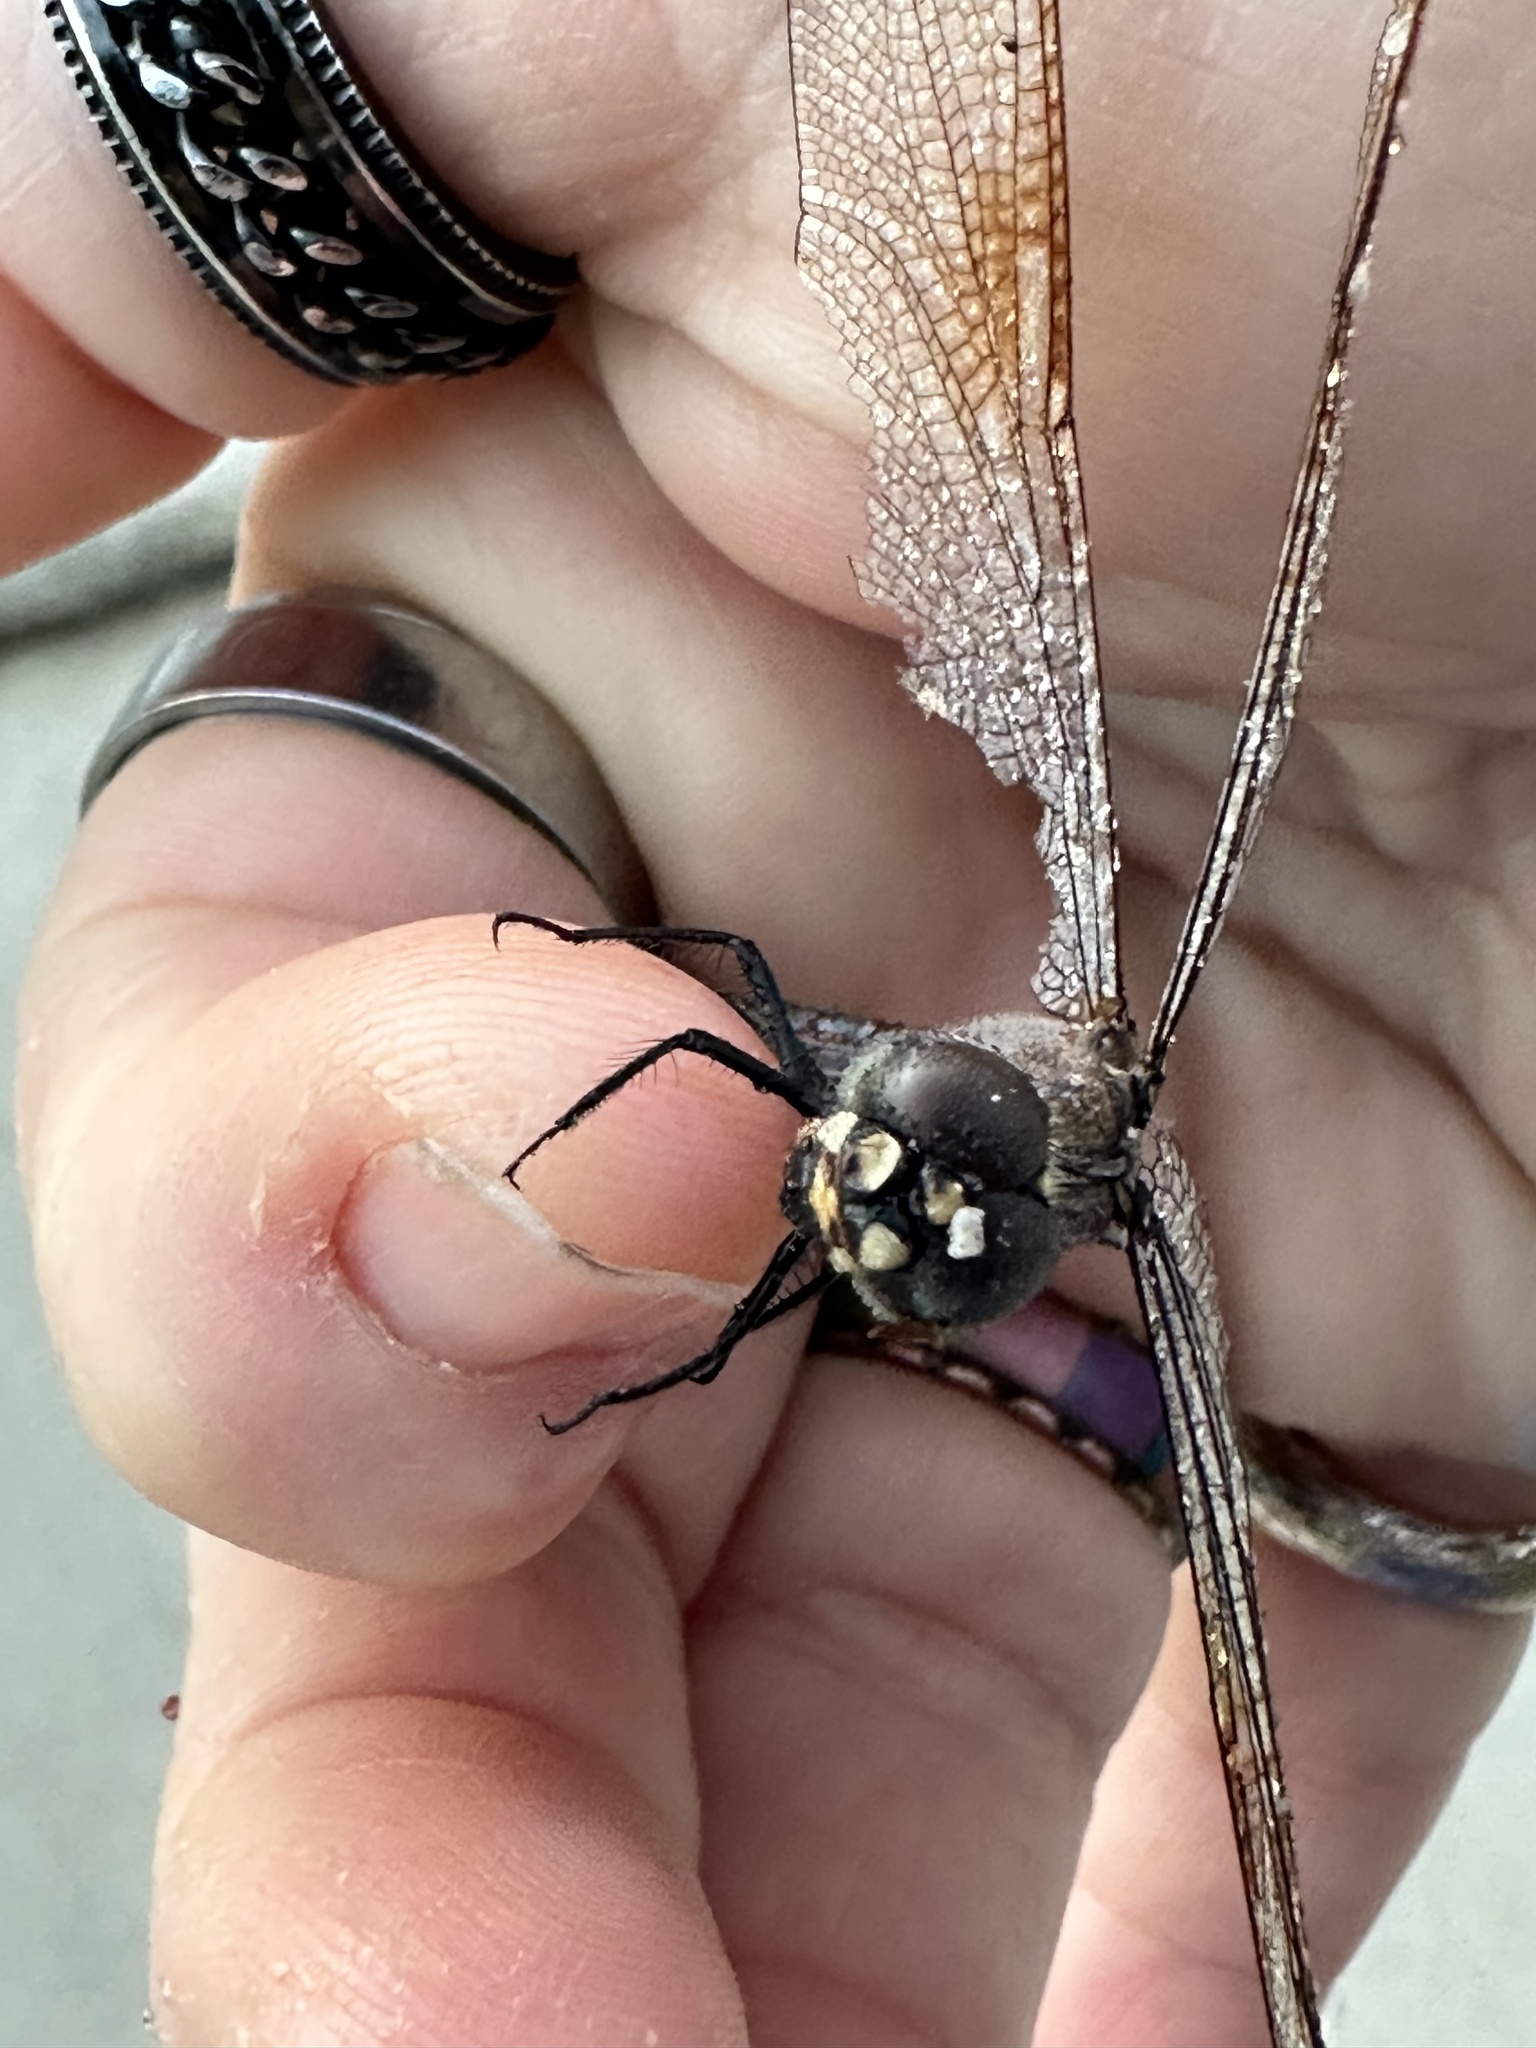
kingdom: Animalia
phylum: Arthropoda
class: Insecta
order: Odonata
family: Libellulidae
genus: Brachymesia
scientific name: Brachymesia gravida
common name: Four-spotted pennant
